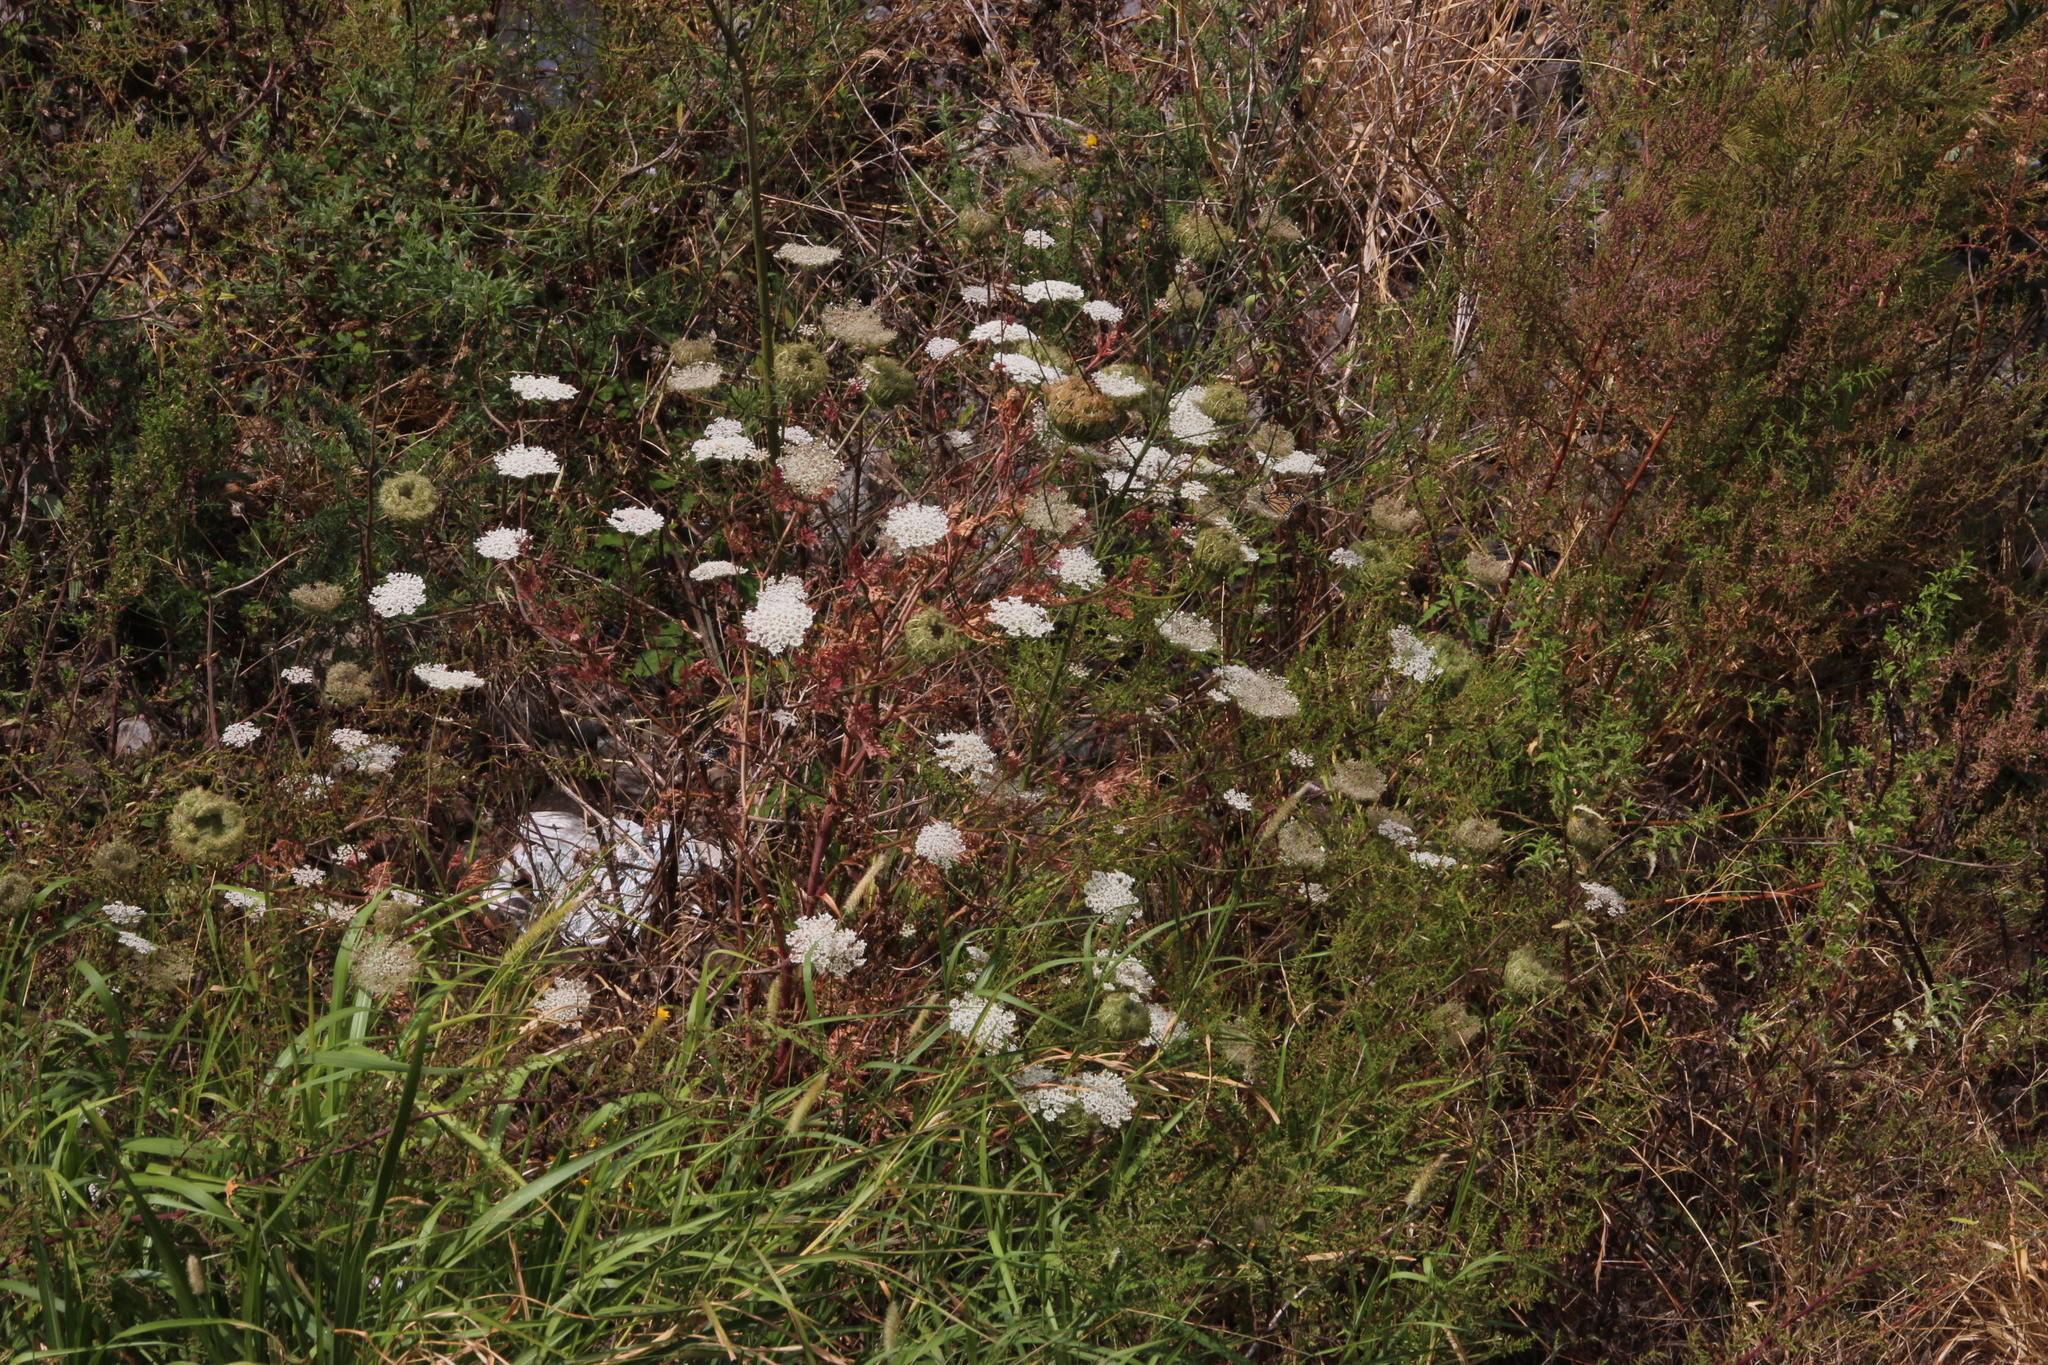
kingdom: Plantae
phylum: Tracheophyta
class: Magnoliopsida
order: Apiales
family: Apiaceae
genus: Daucus
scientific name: Daucus carota
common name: Wild carrot
